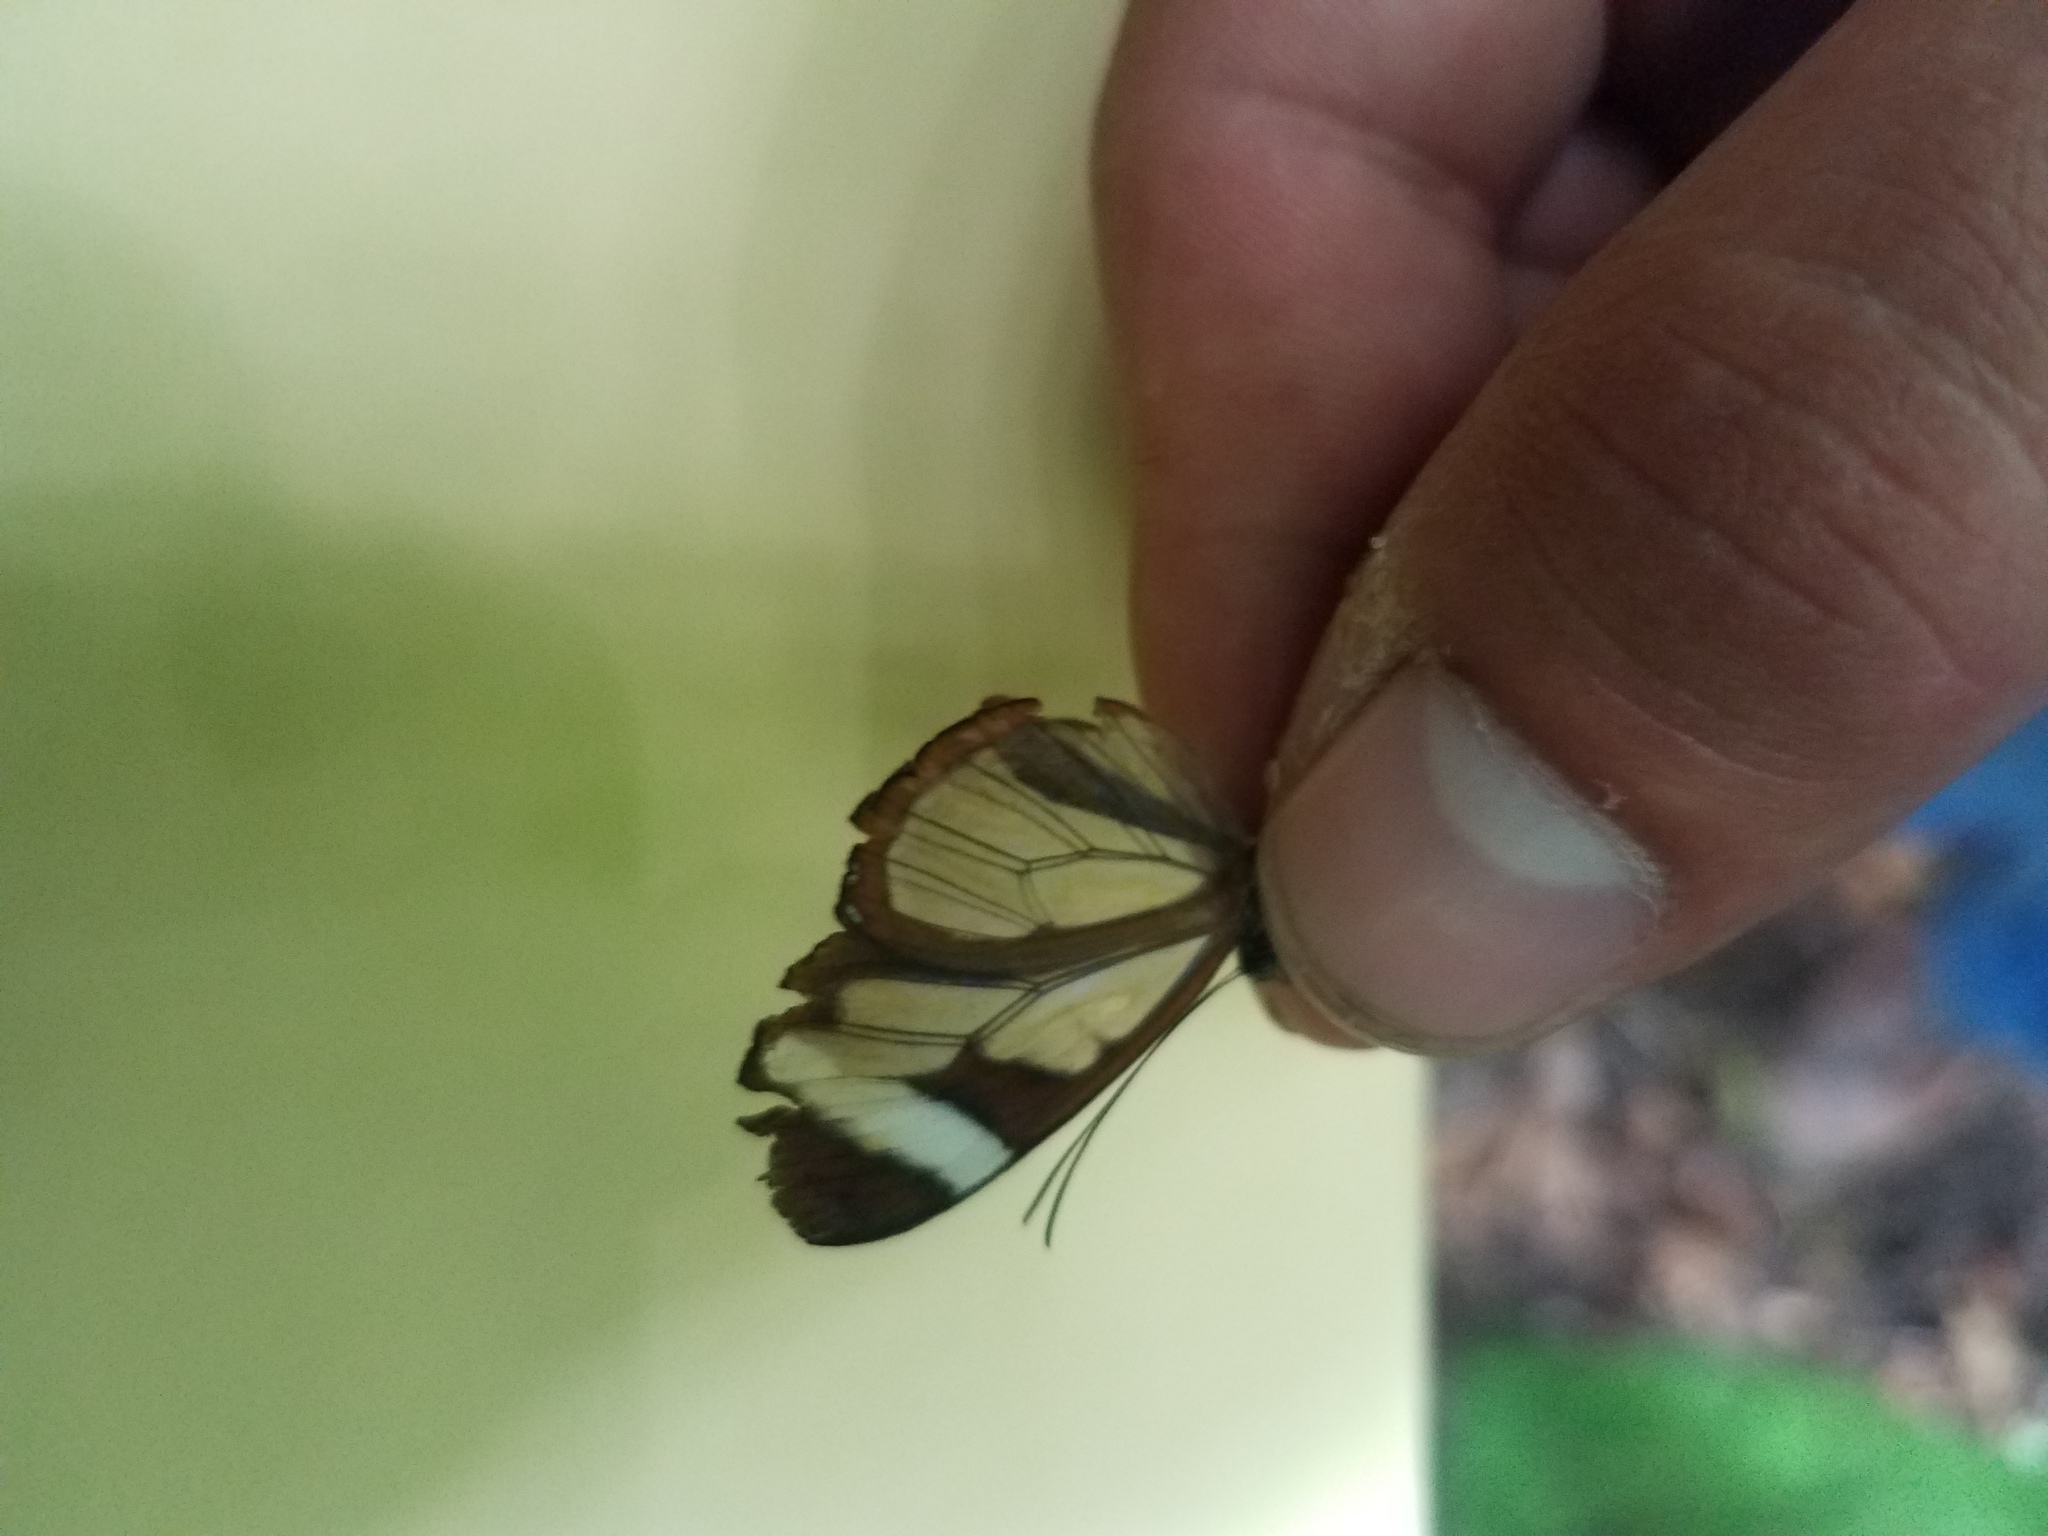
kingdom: Animalia
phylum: Arthropoda
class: Insecta
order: Lepidoptera
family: Nymphalidae
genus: Oleria
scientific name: Oleria paula
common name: Paula's clearwing
